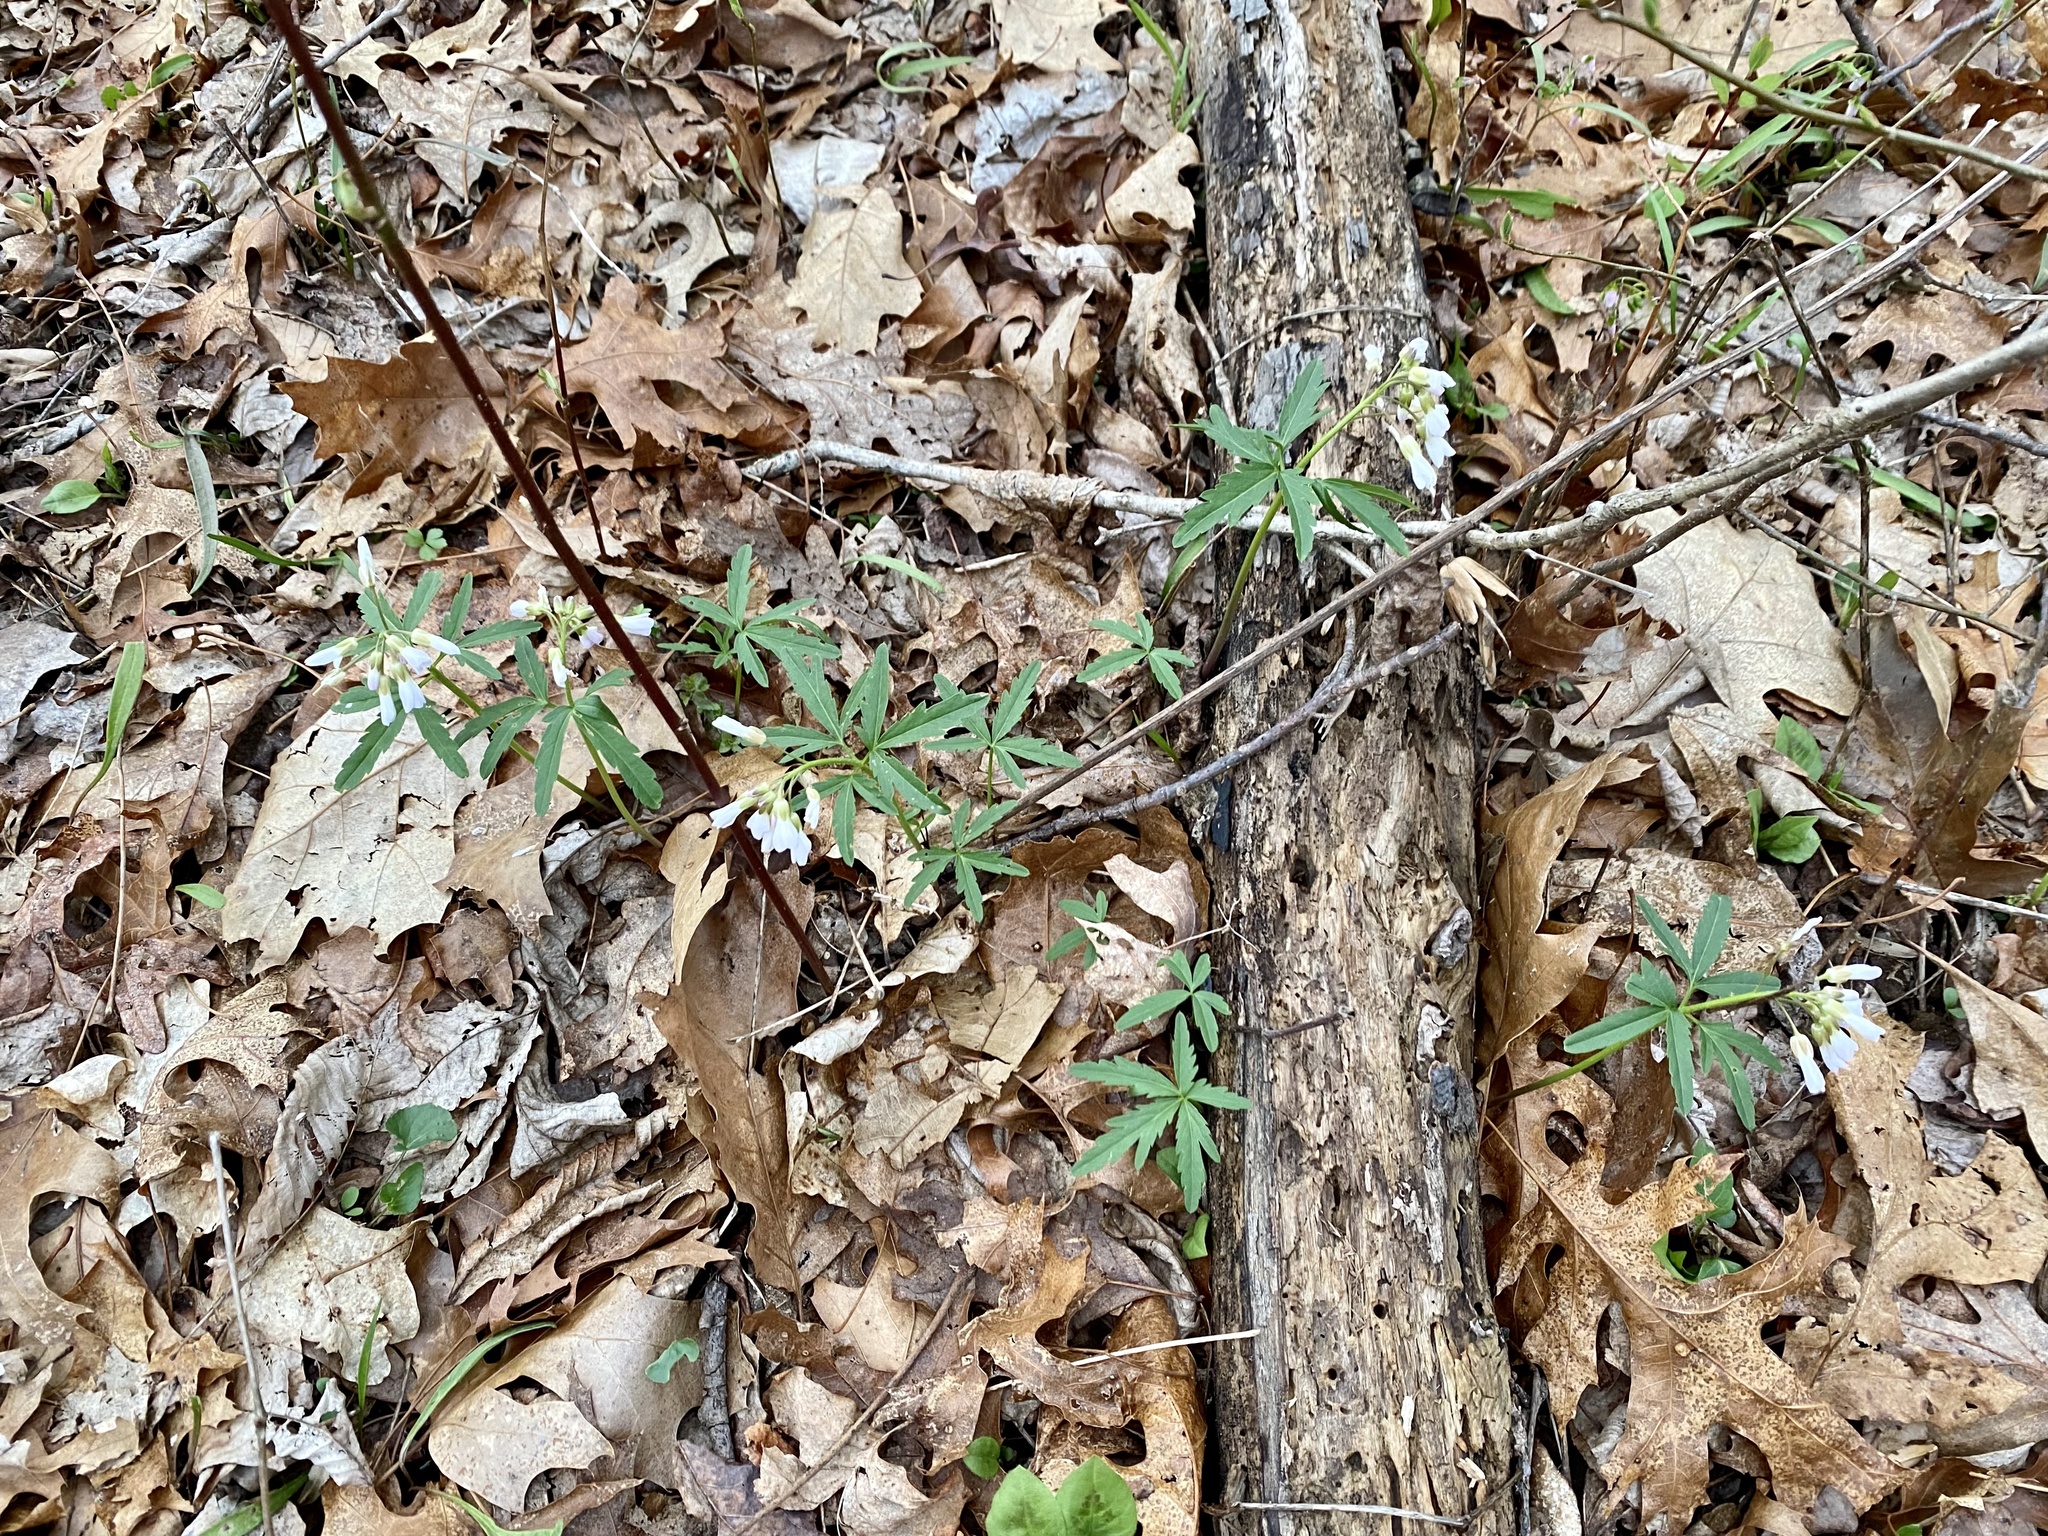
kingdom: Plantae
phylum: Tracheophyta
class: Magnoliopsida
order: Brassicales
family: Brassicaceae
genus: Cardamine
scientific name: Cardamine concatenata
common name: Cut-leaf toothcup
